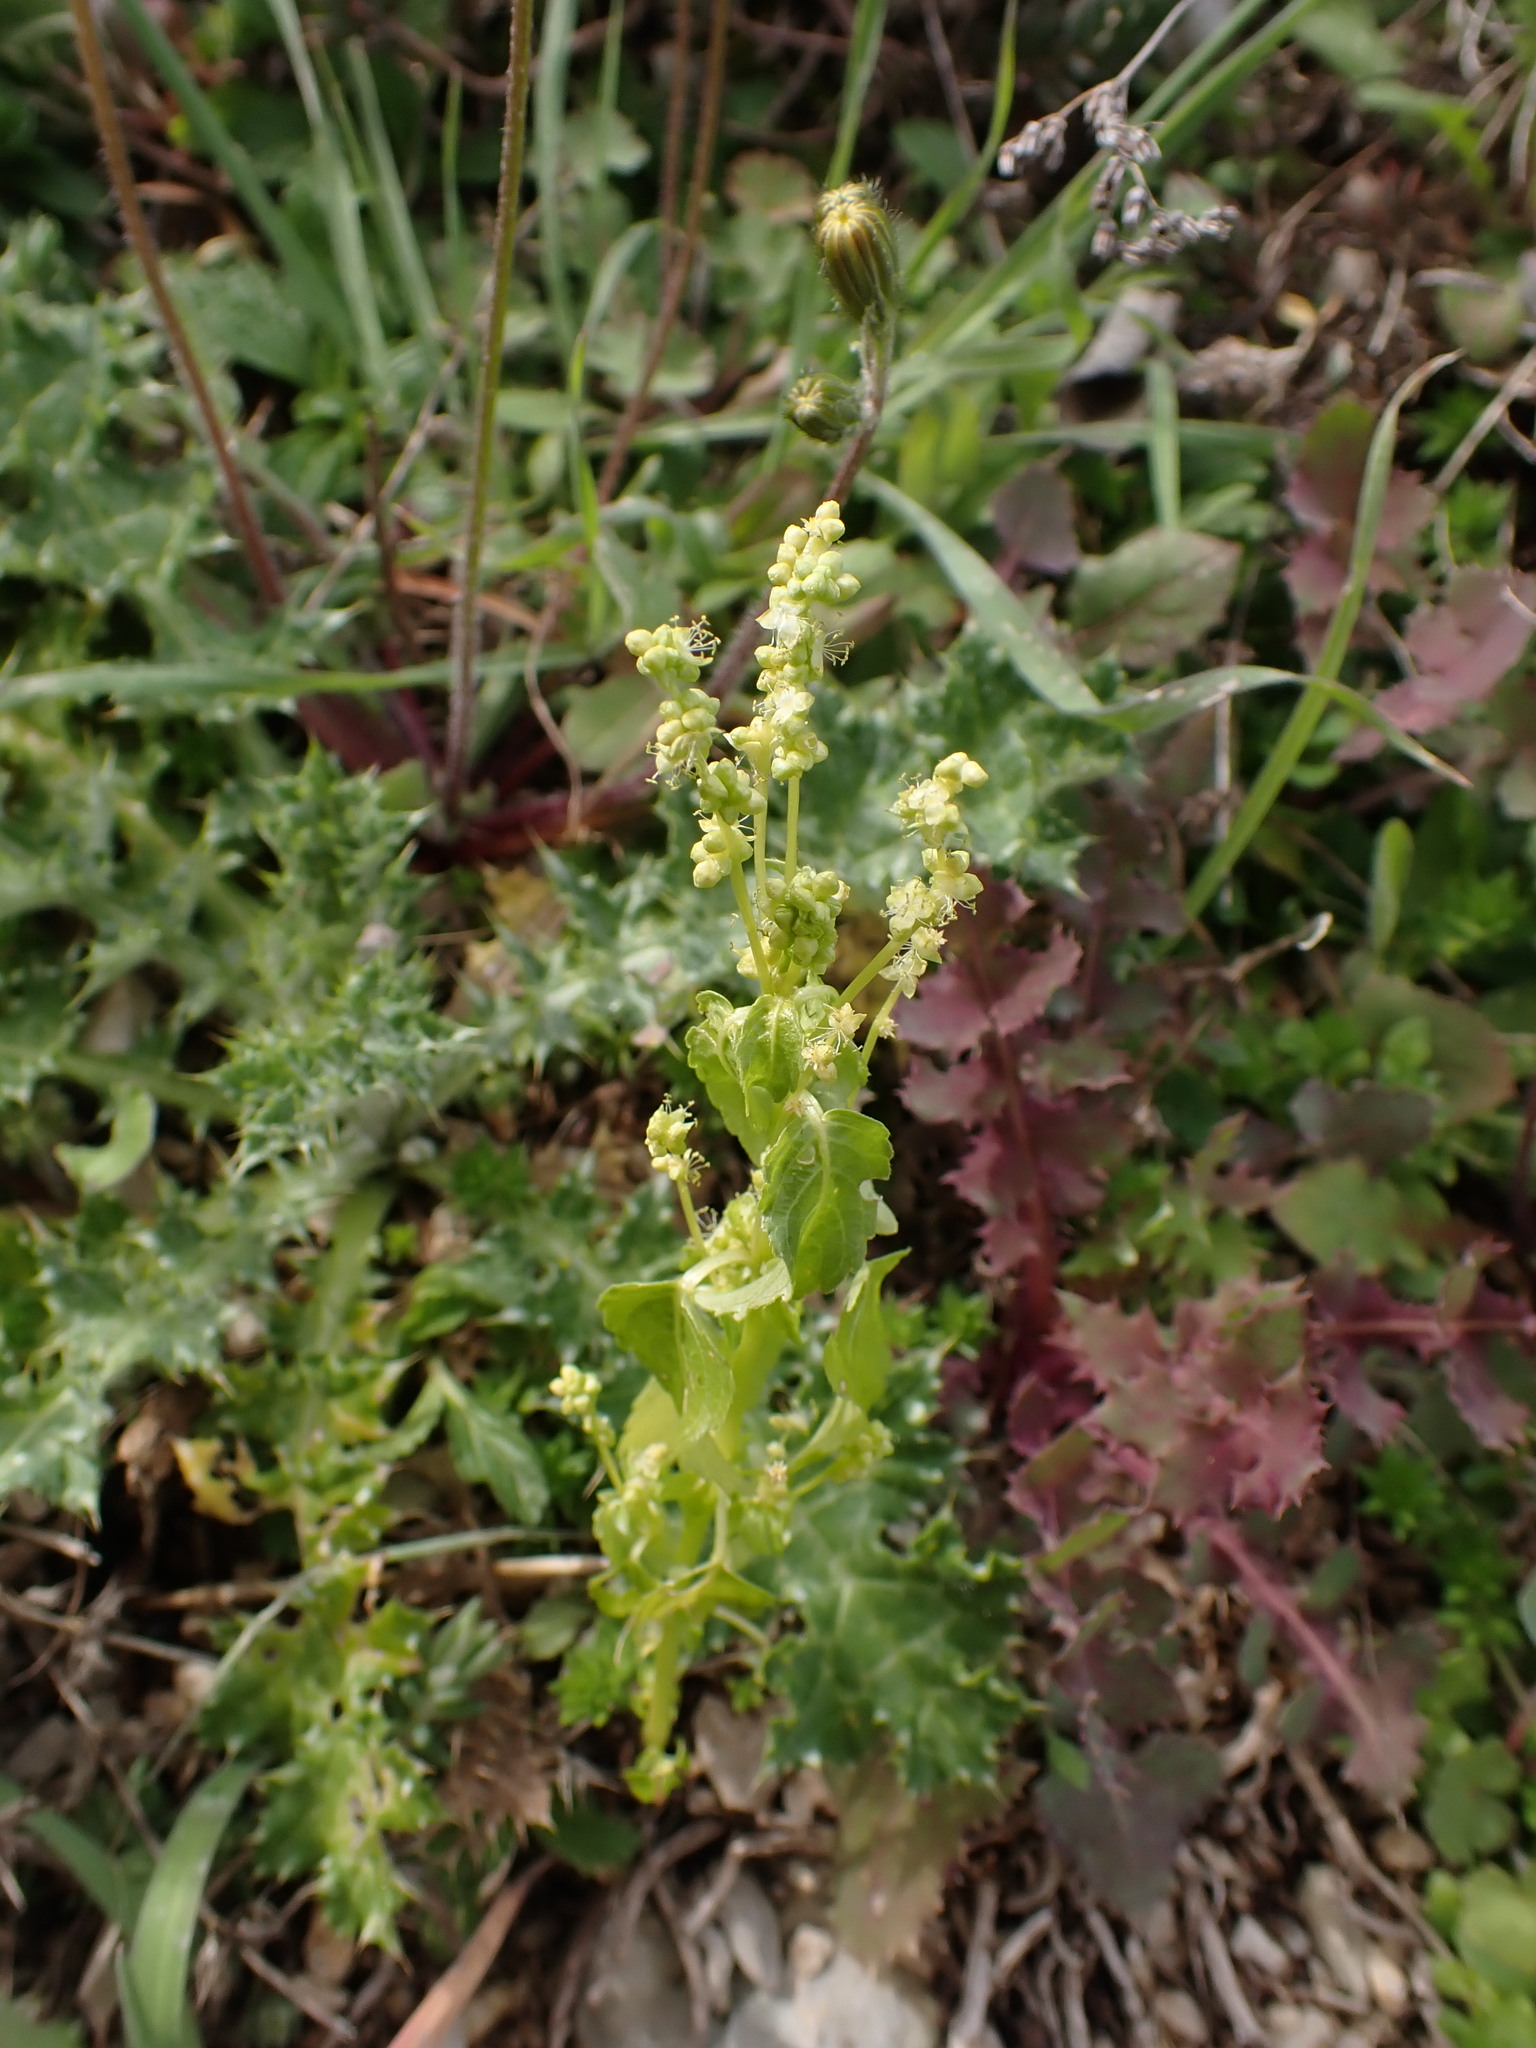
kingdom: Plantae
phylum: Tracheophyta
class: Magnoliopsida
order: Malpighiales
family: Euphorbiaceae
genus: Mercurialis
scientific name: Mercurialis annua
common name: Annual mercury
